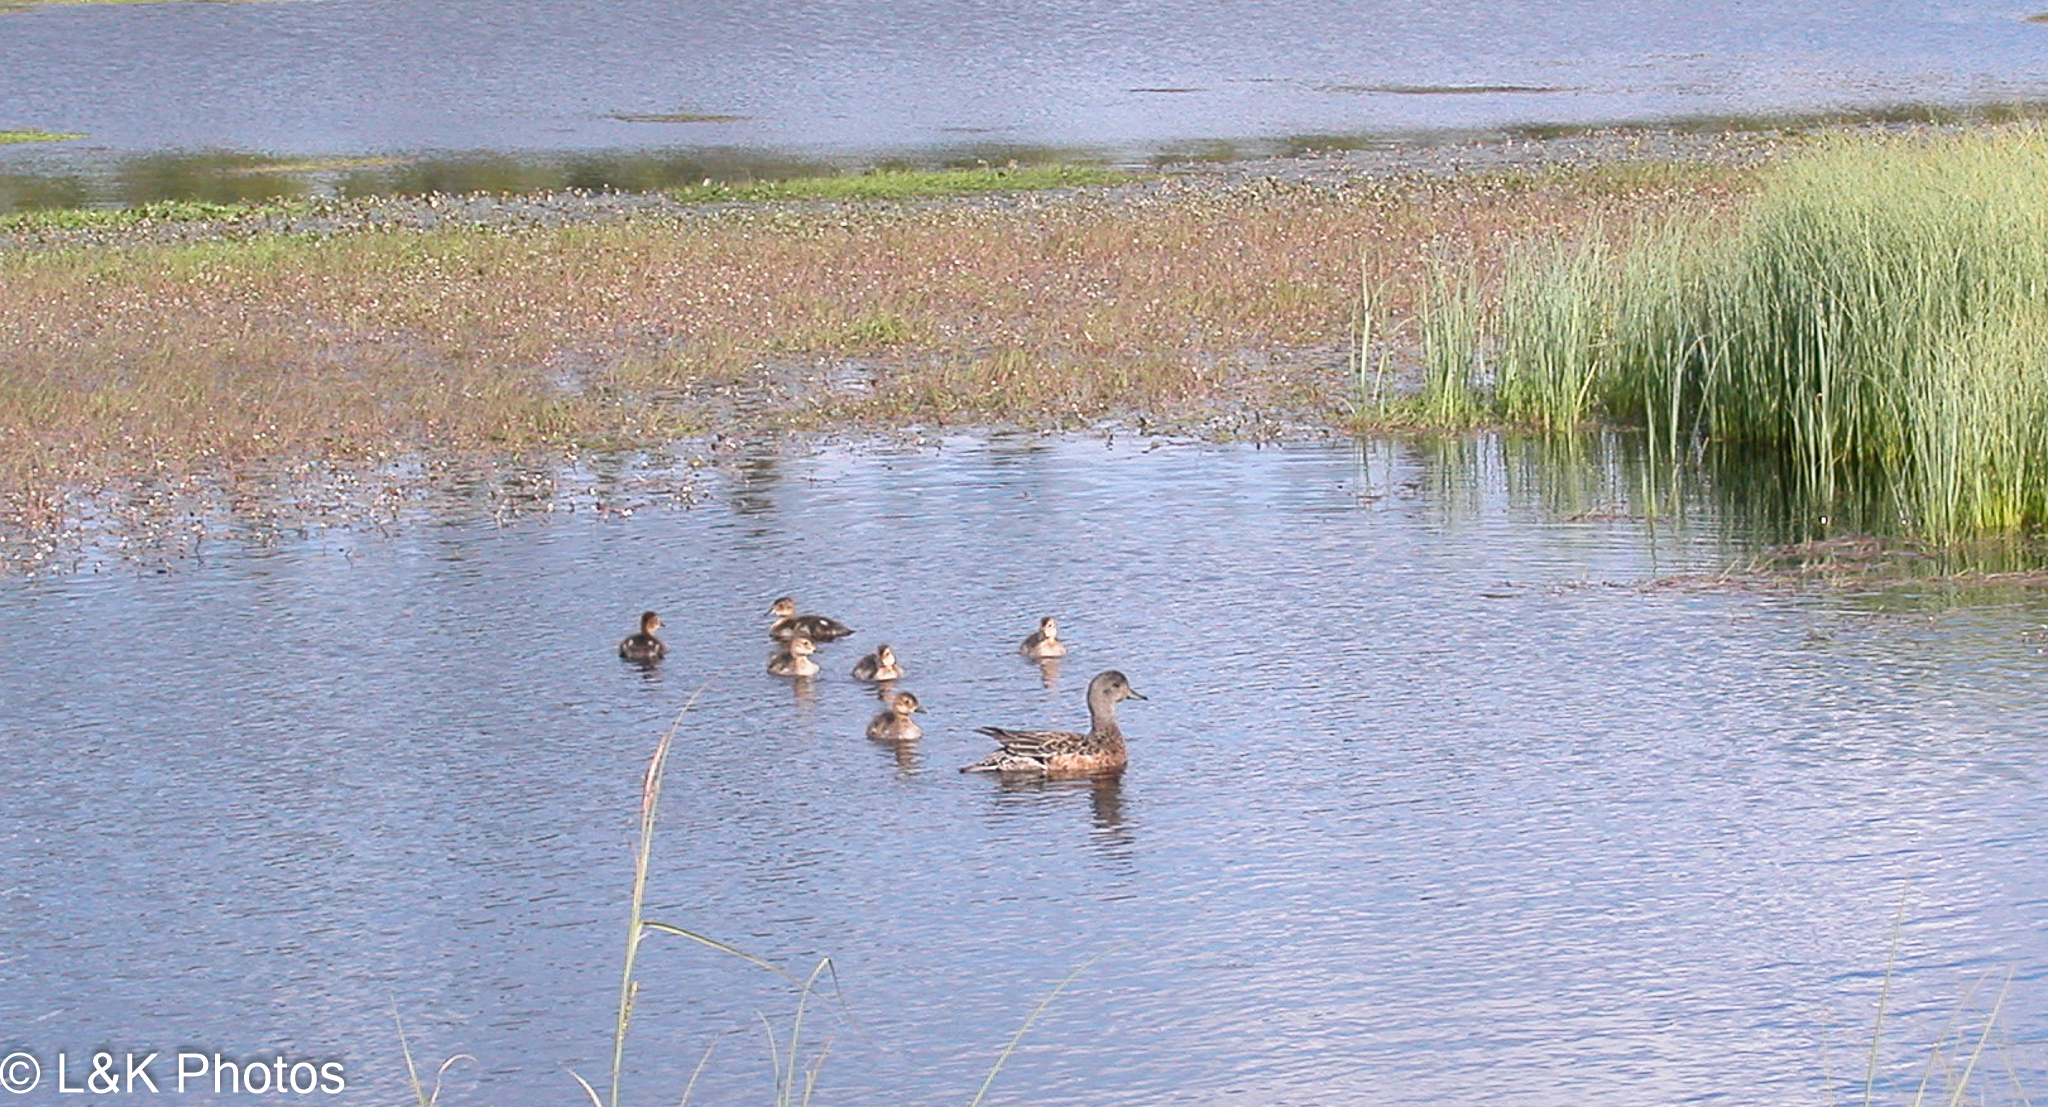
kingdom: Animalia
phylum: Chordata
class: Aves
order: Anseriformes
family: Anatidae
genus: Mareca
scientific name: Mareca americana
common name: American wigeon
